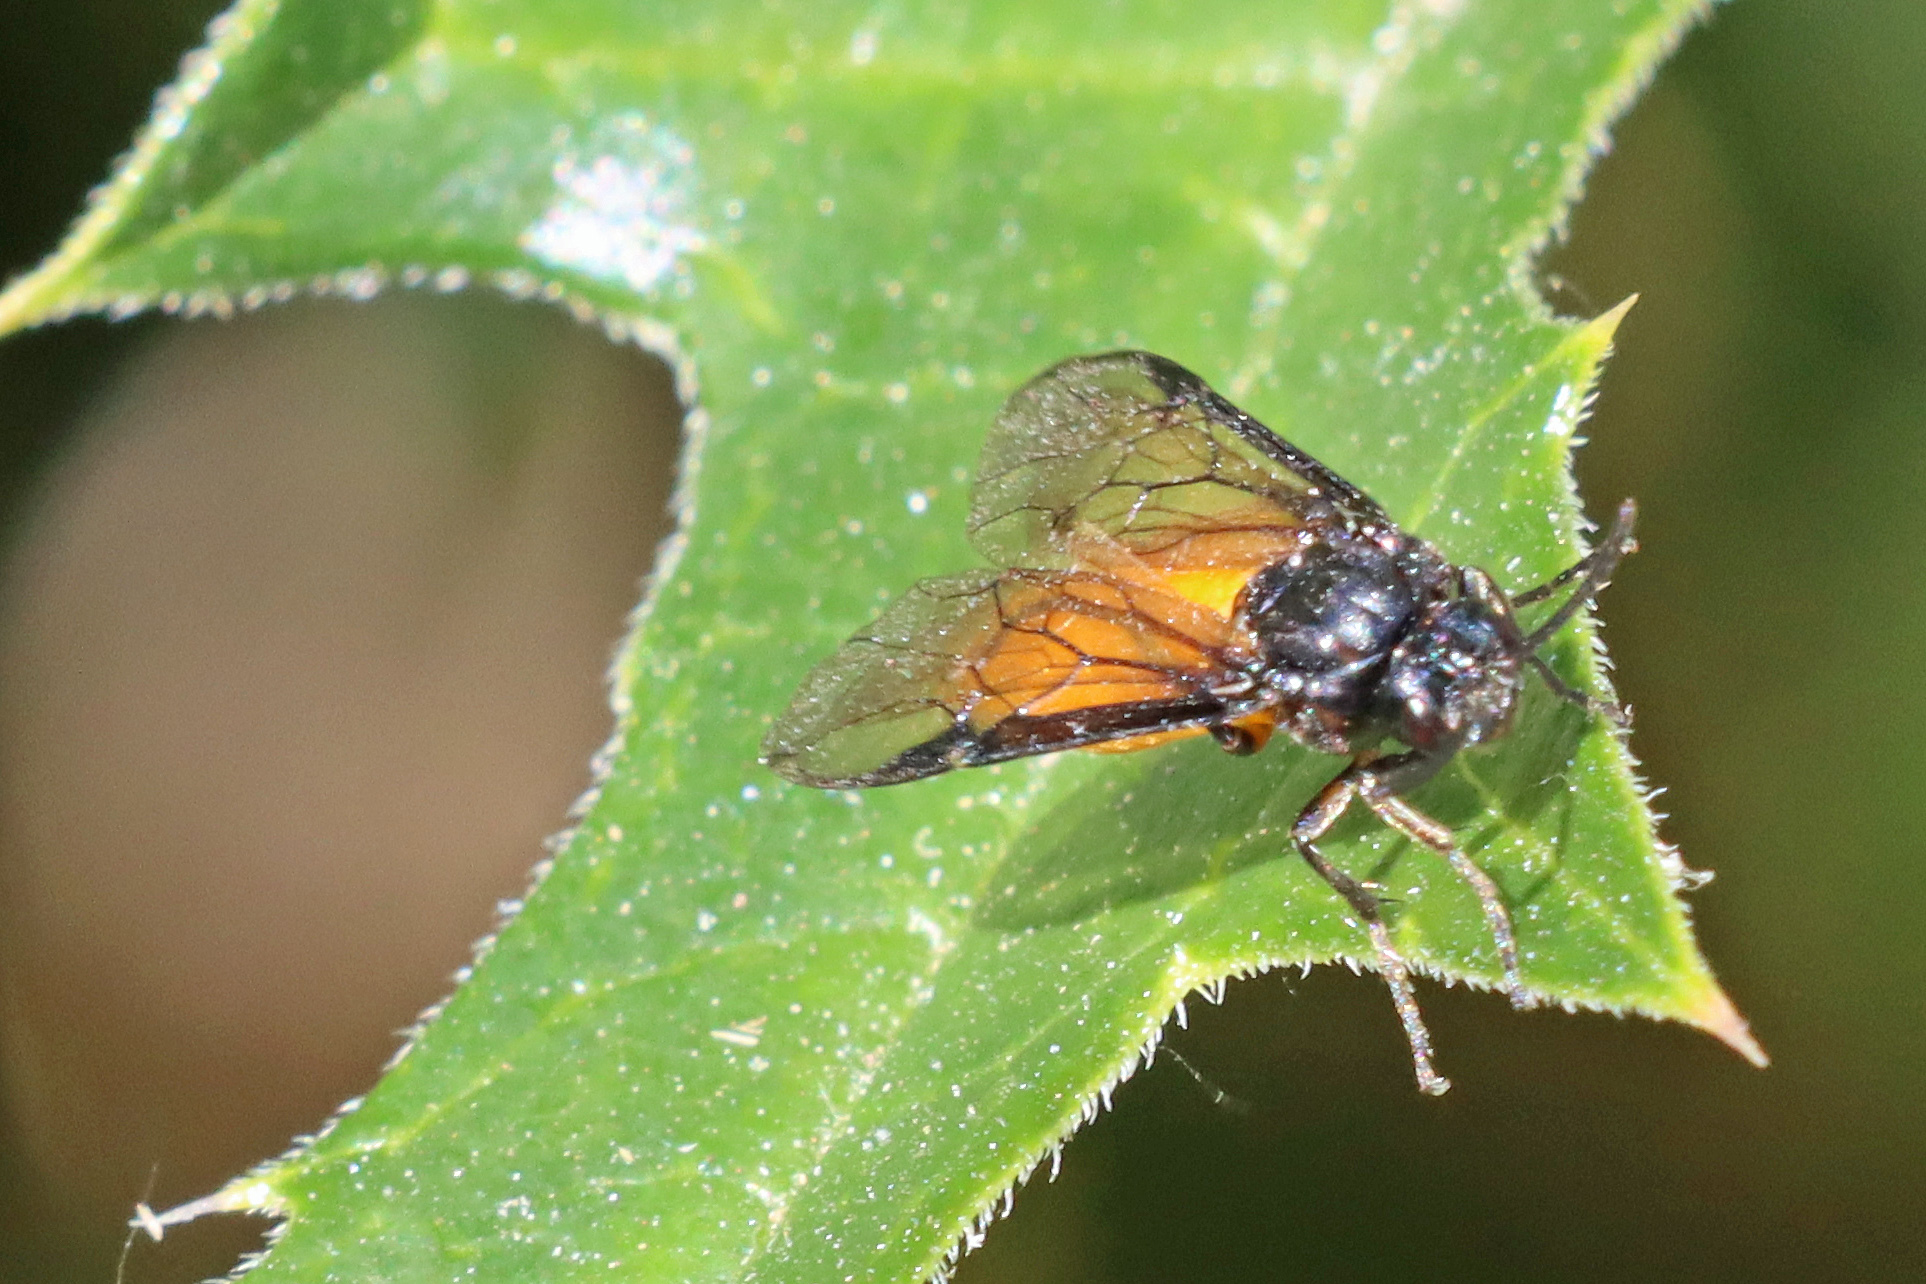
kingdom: Animalia
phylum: Arthropoda
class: Insecta
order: Hymenoptera
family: Argidae
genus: Arge
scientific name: Arge pagana
